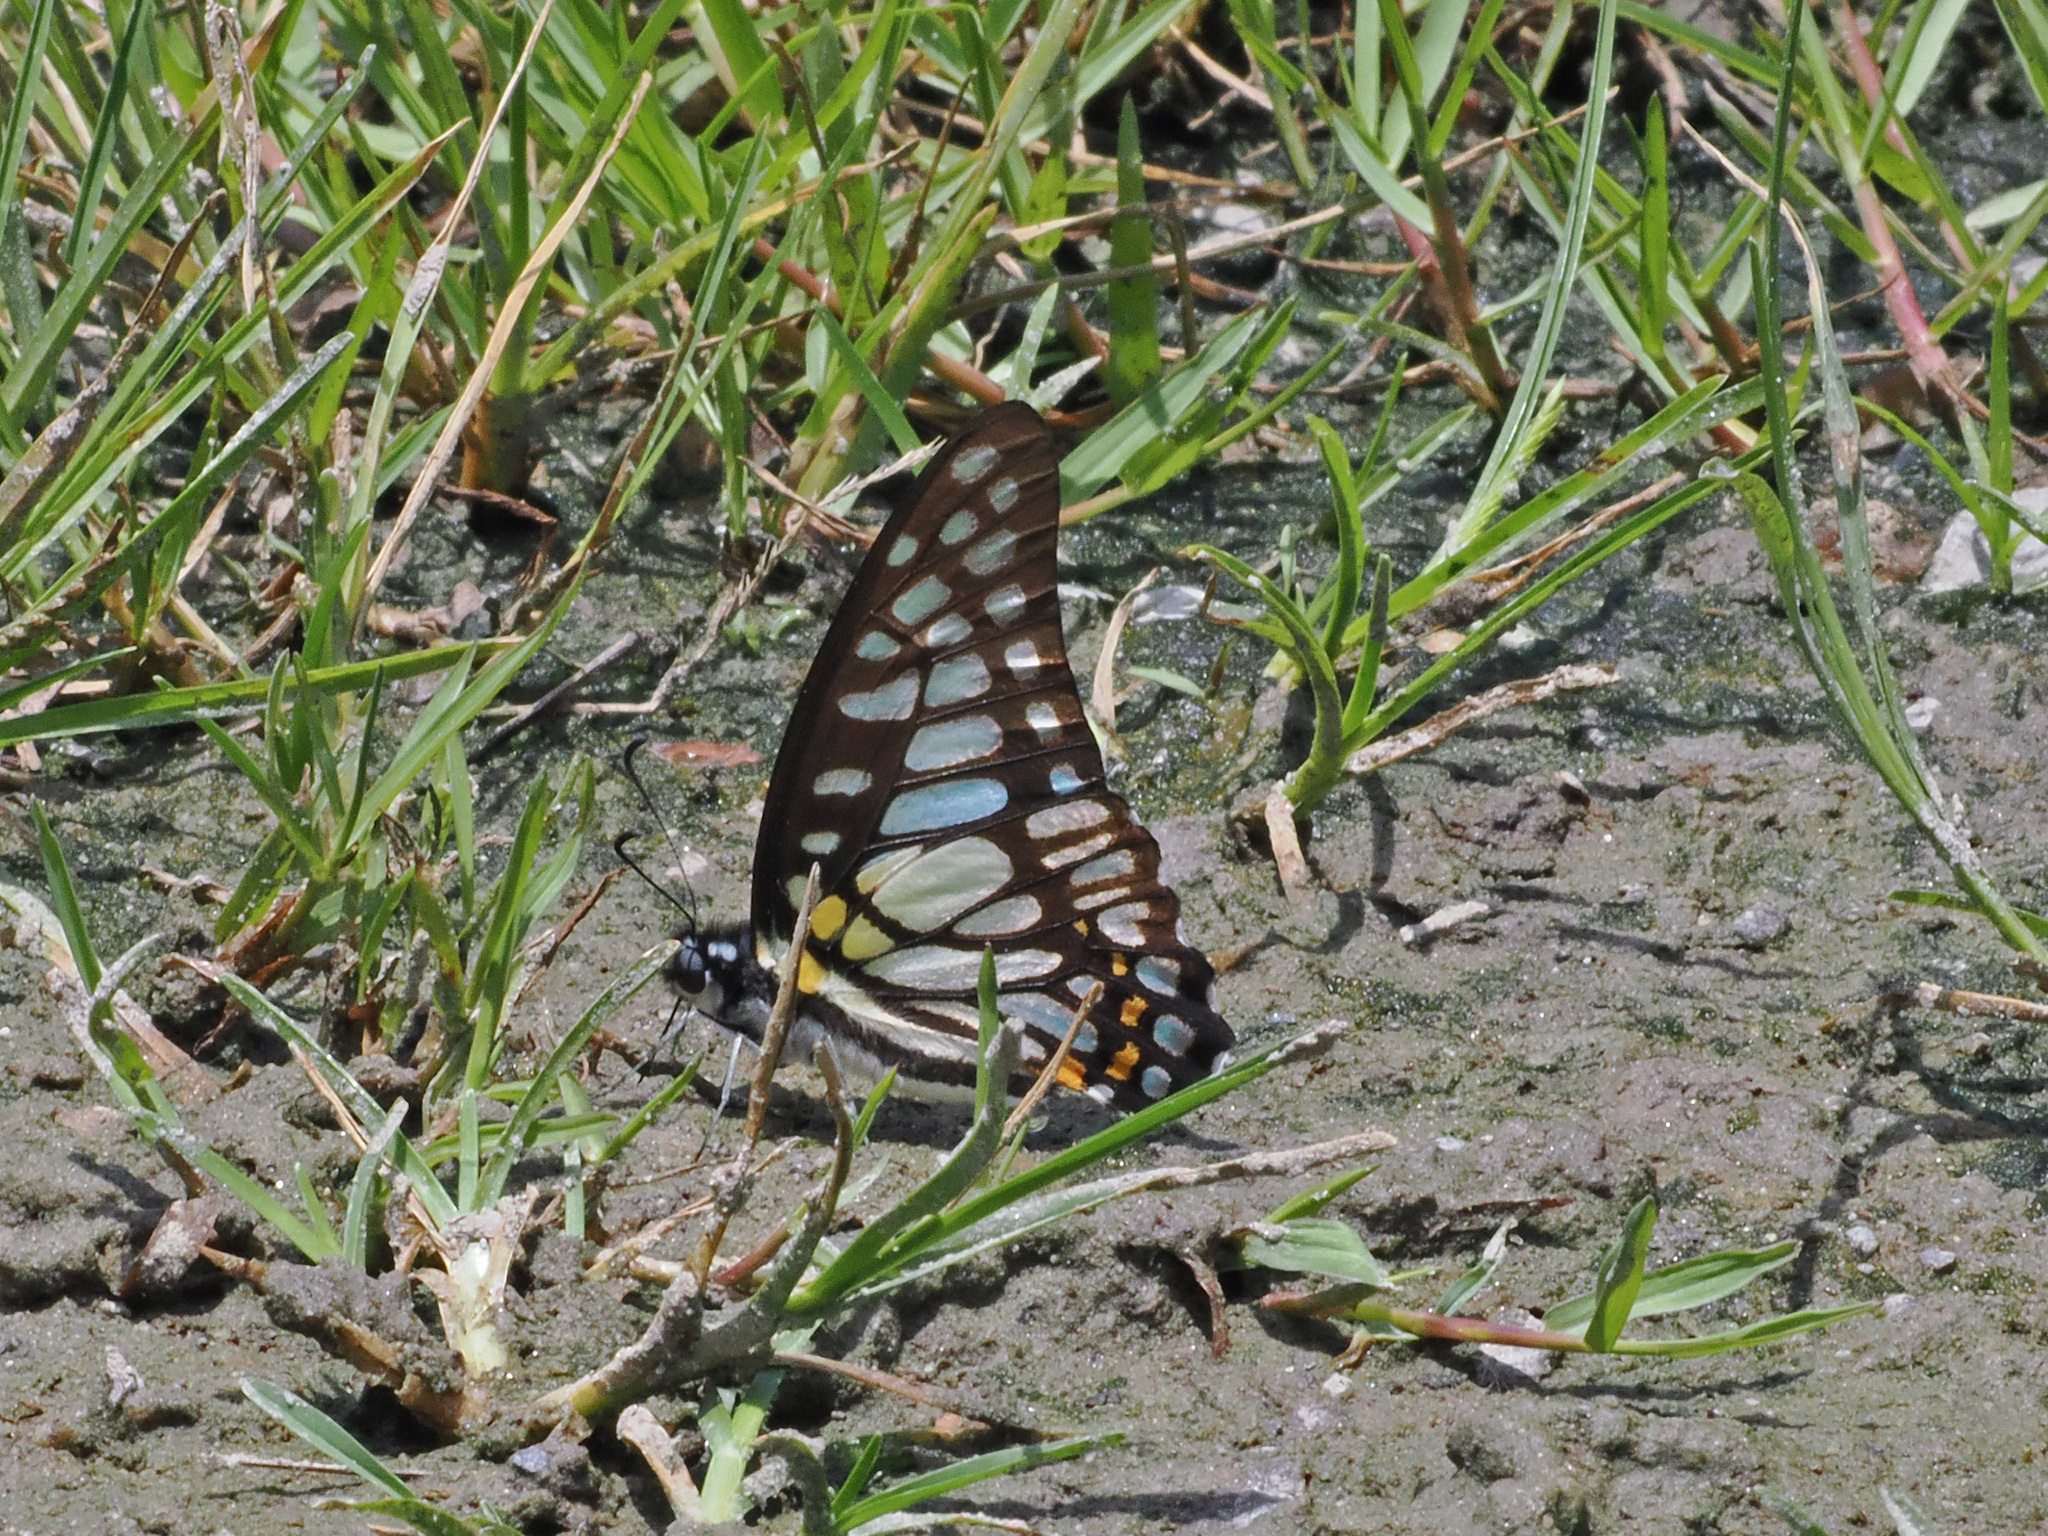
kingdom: Animalia
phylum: Arthropoda
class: Insecta
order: Lepidoptera
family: Papilionidae
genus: Graphium
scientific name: Graphium chironides
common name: Veined jay
